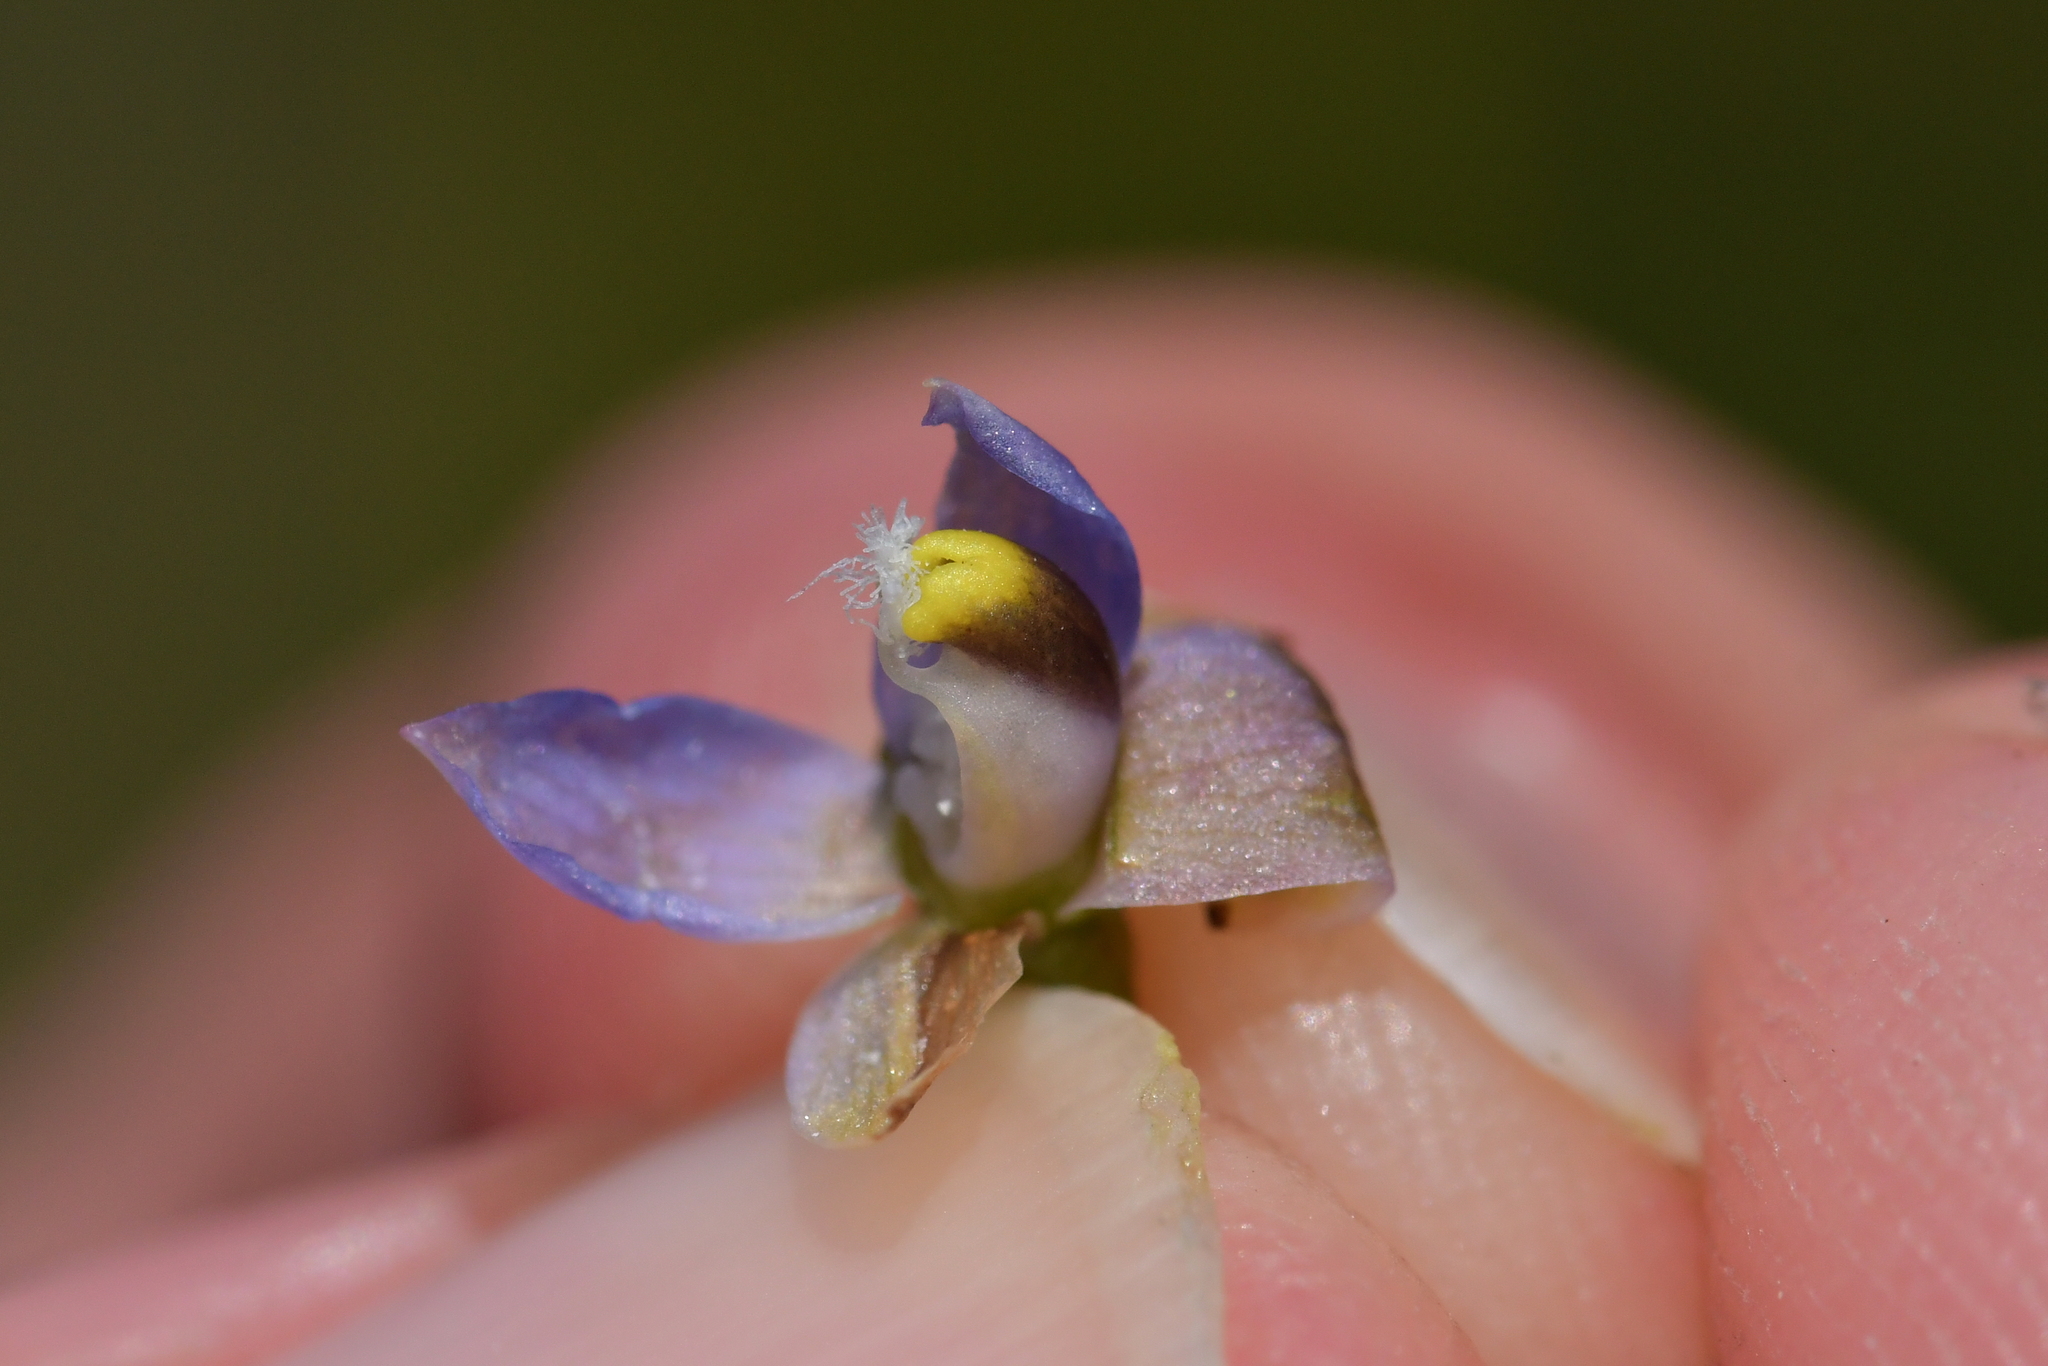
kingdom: Plantae
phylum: Tracheophyta
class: Liliopsida
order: Asparagales
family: Orchidaceae
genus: Thelymitra
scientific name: Thelymitra colensoi
